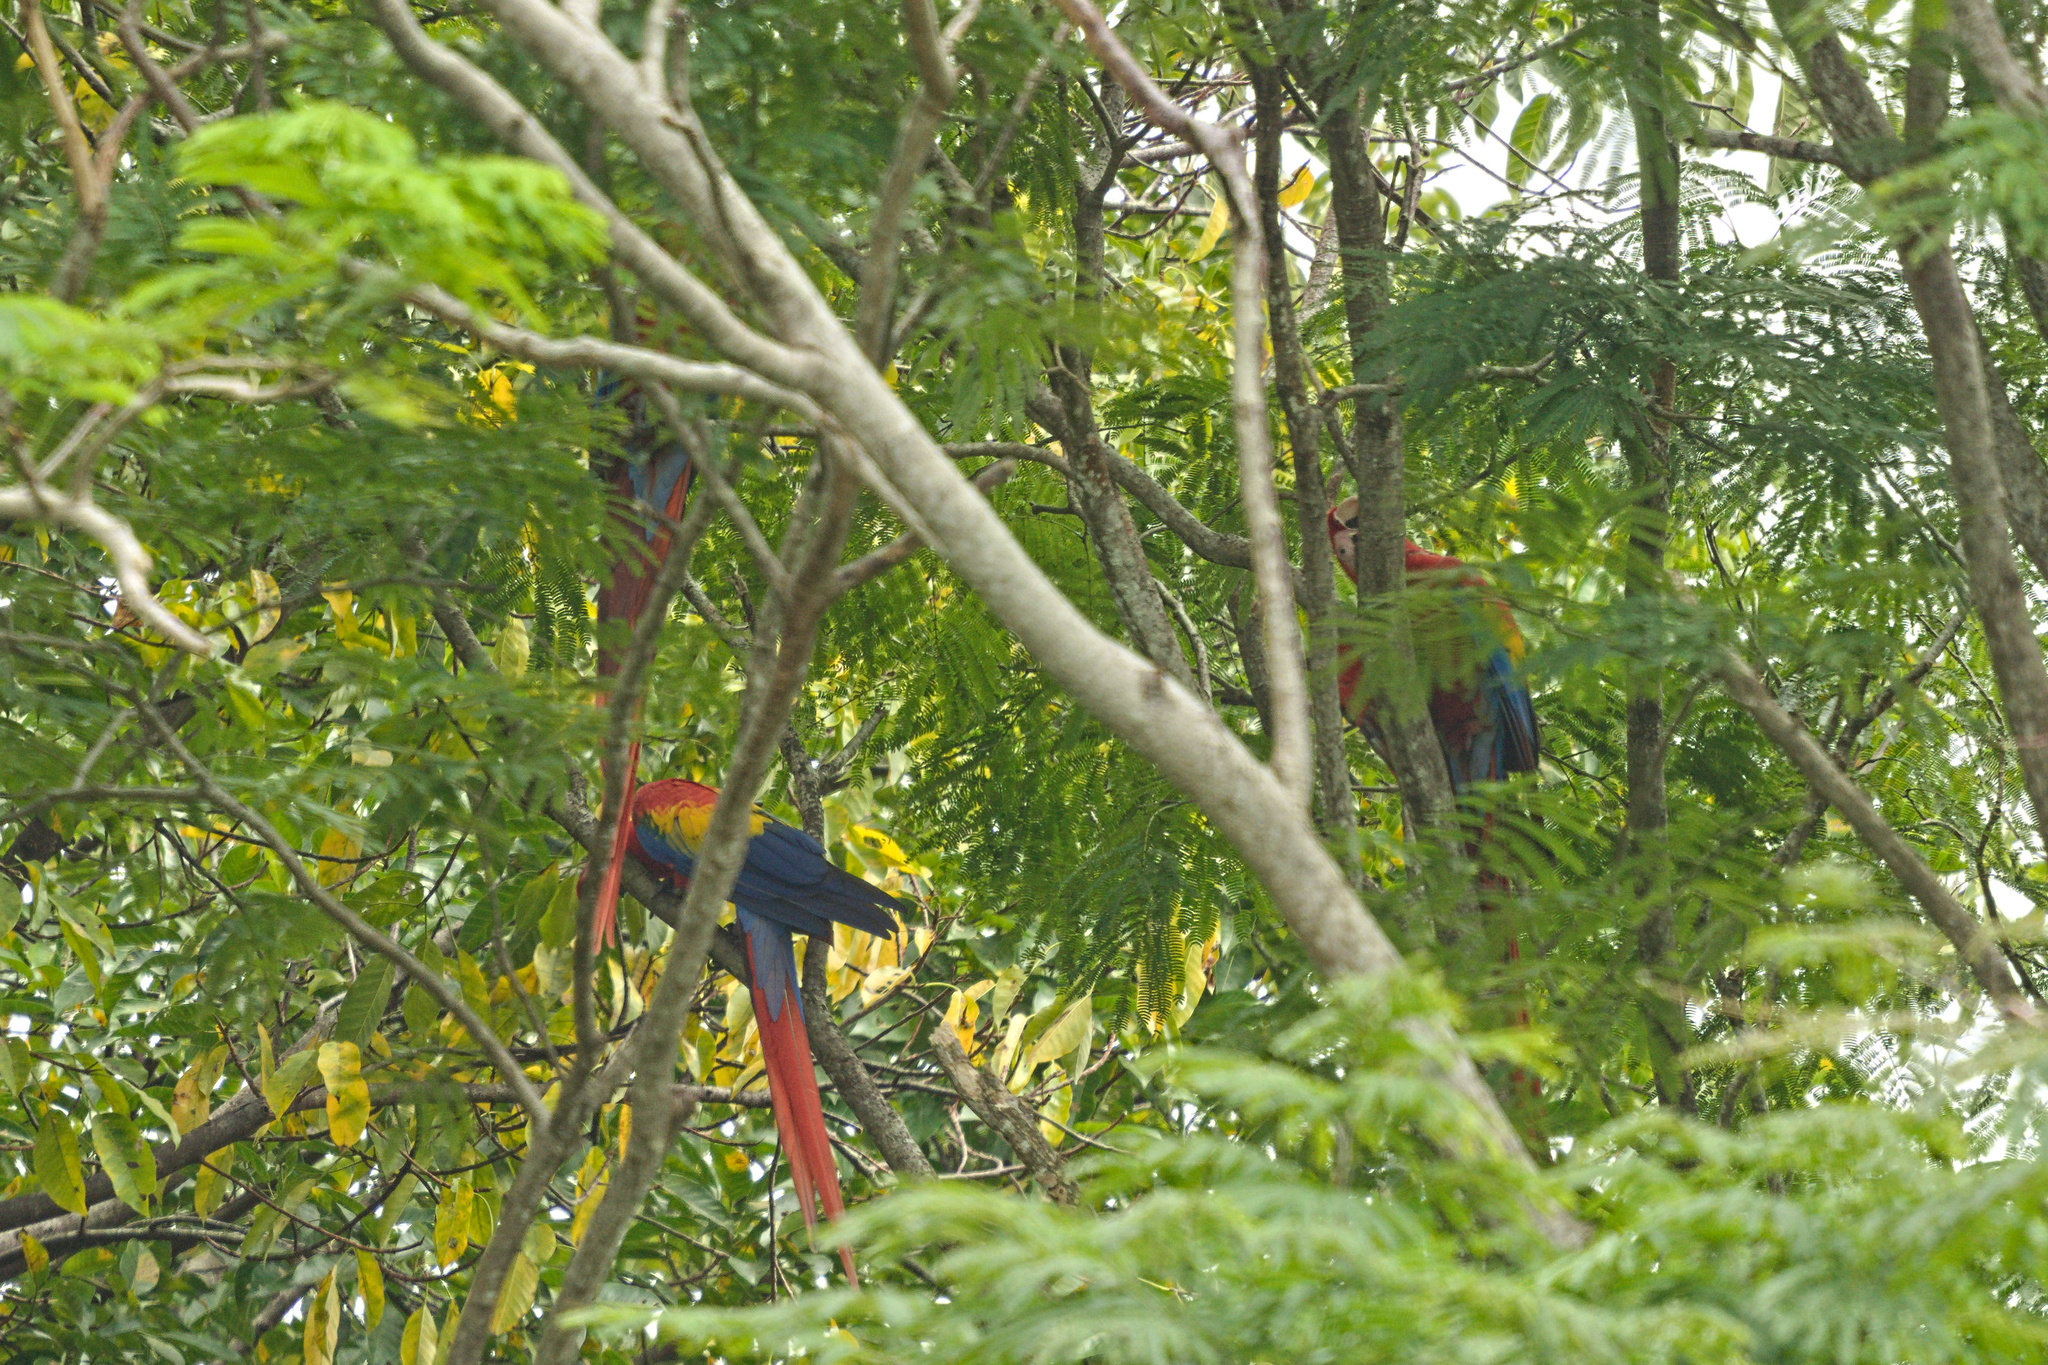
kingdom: Animalia
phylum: Chordata
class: Aves
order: Psittaciformes
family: Psittacidae
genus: Ara
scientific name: Ara macao
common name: Scarlet macaw
